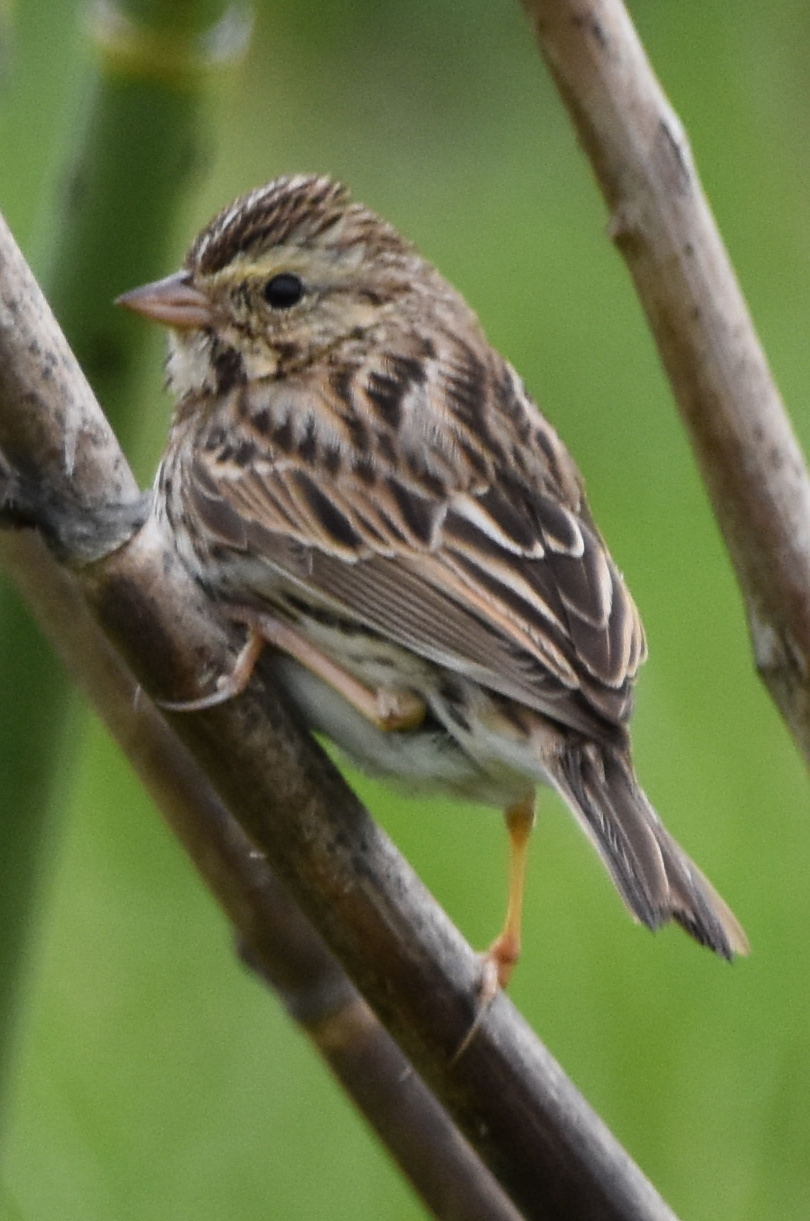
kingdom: Animalia
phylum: Chordata
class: Aves
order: Passeriformes
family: Passerellidae
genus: Passerculus
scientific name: Passerculus sandwichensis
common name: Savannah sparrow
